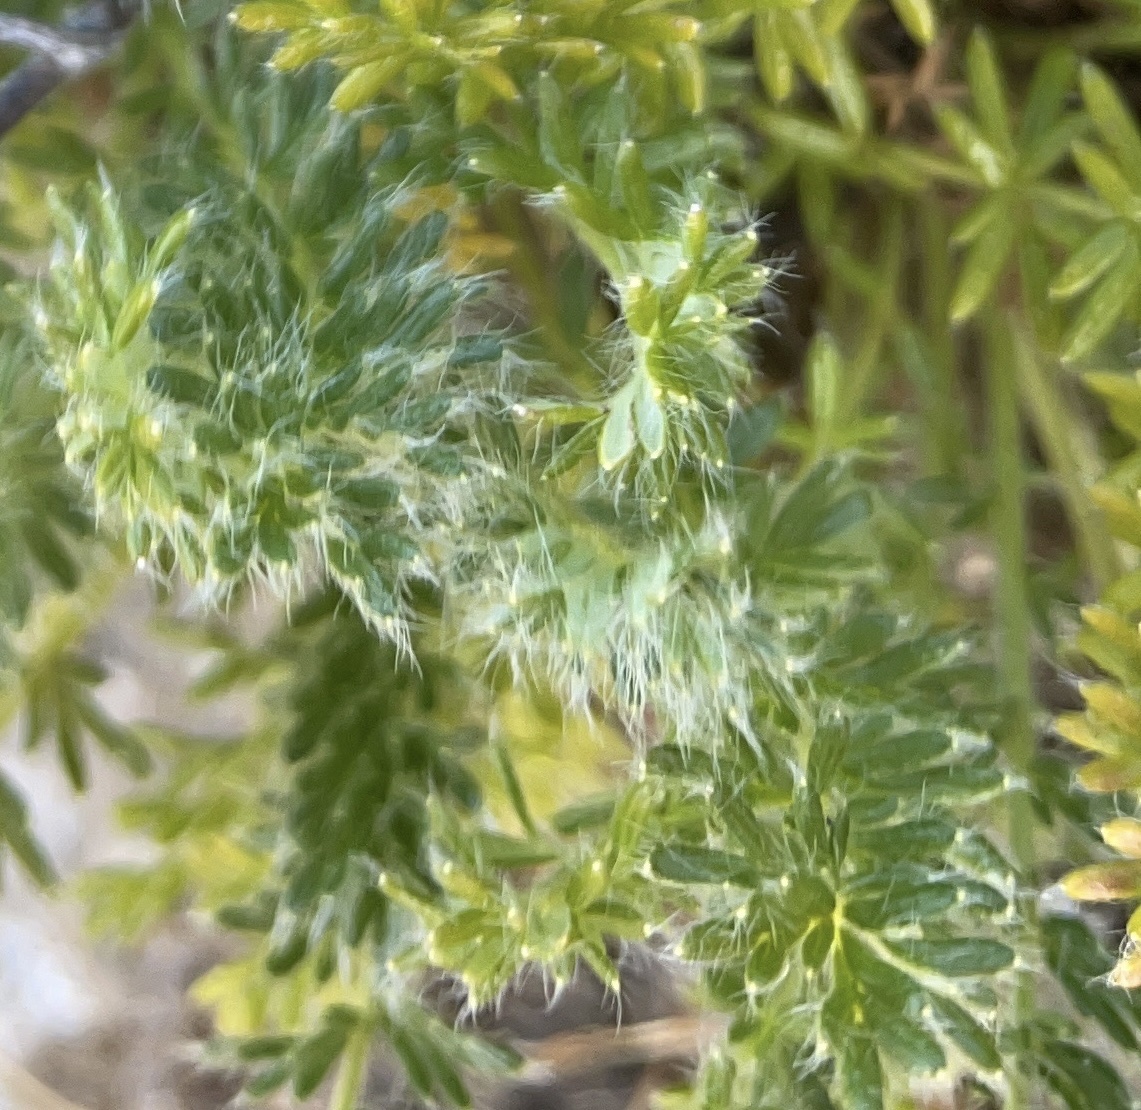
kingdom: Plantae
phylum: Tracheophyta
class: Magnoliopsida
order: Rosales
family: Rosaceae
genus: Acaena
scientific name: Acaena pinnatifida
